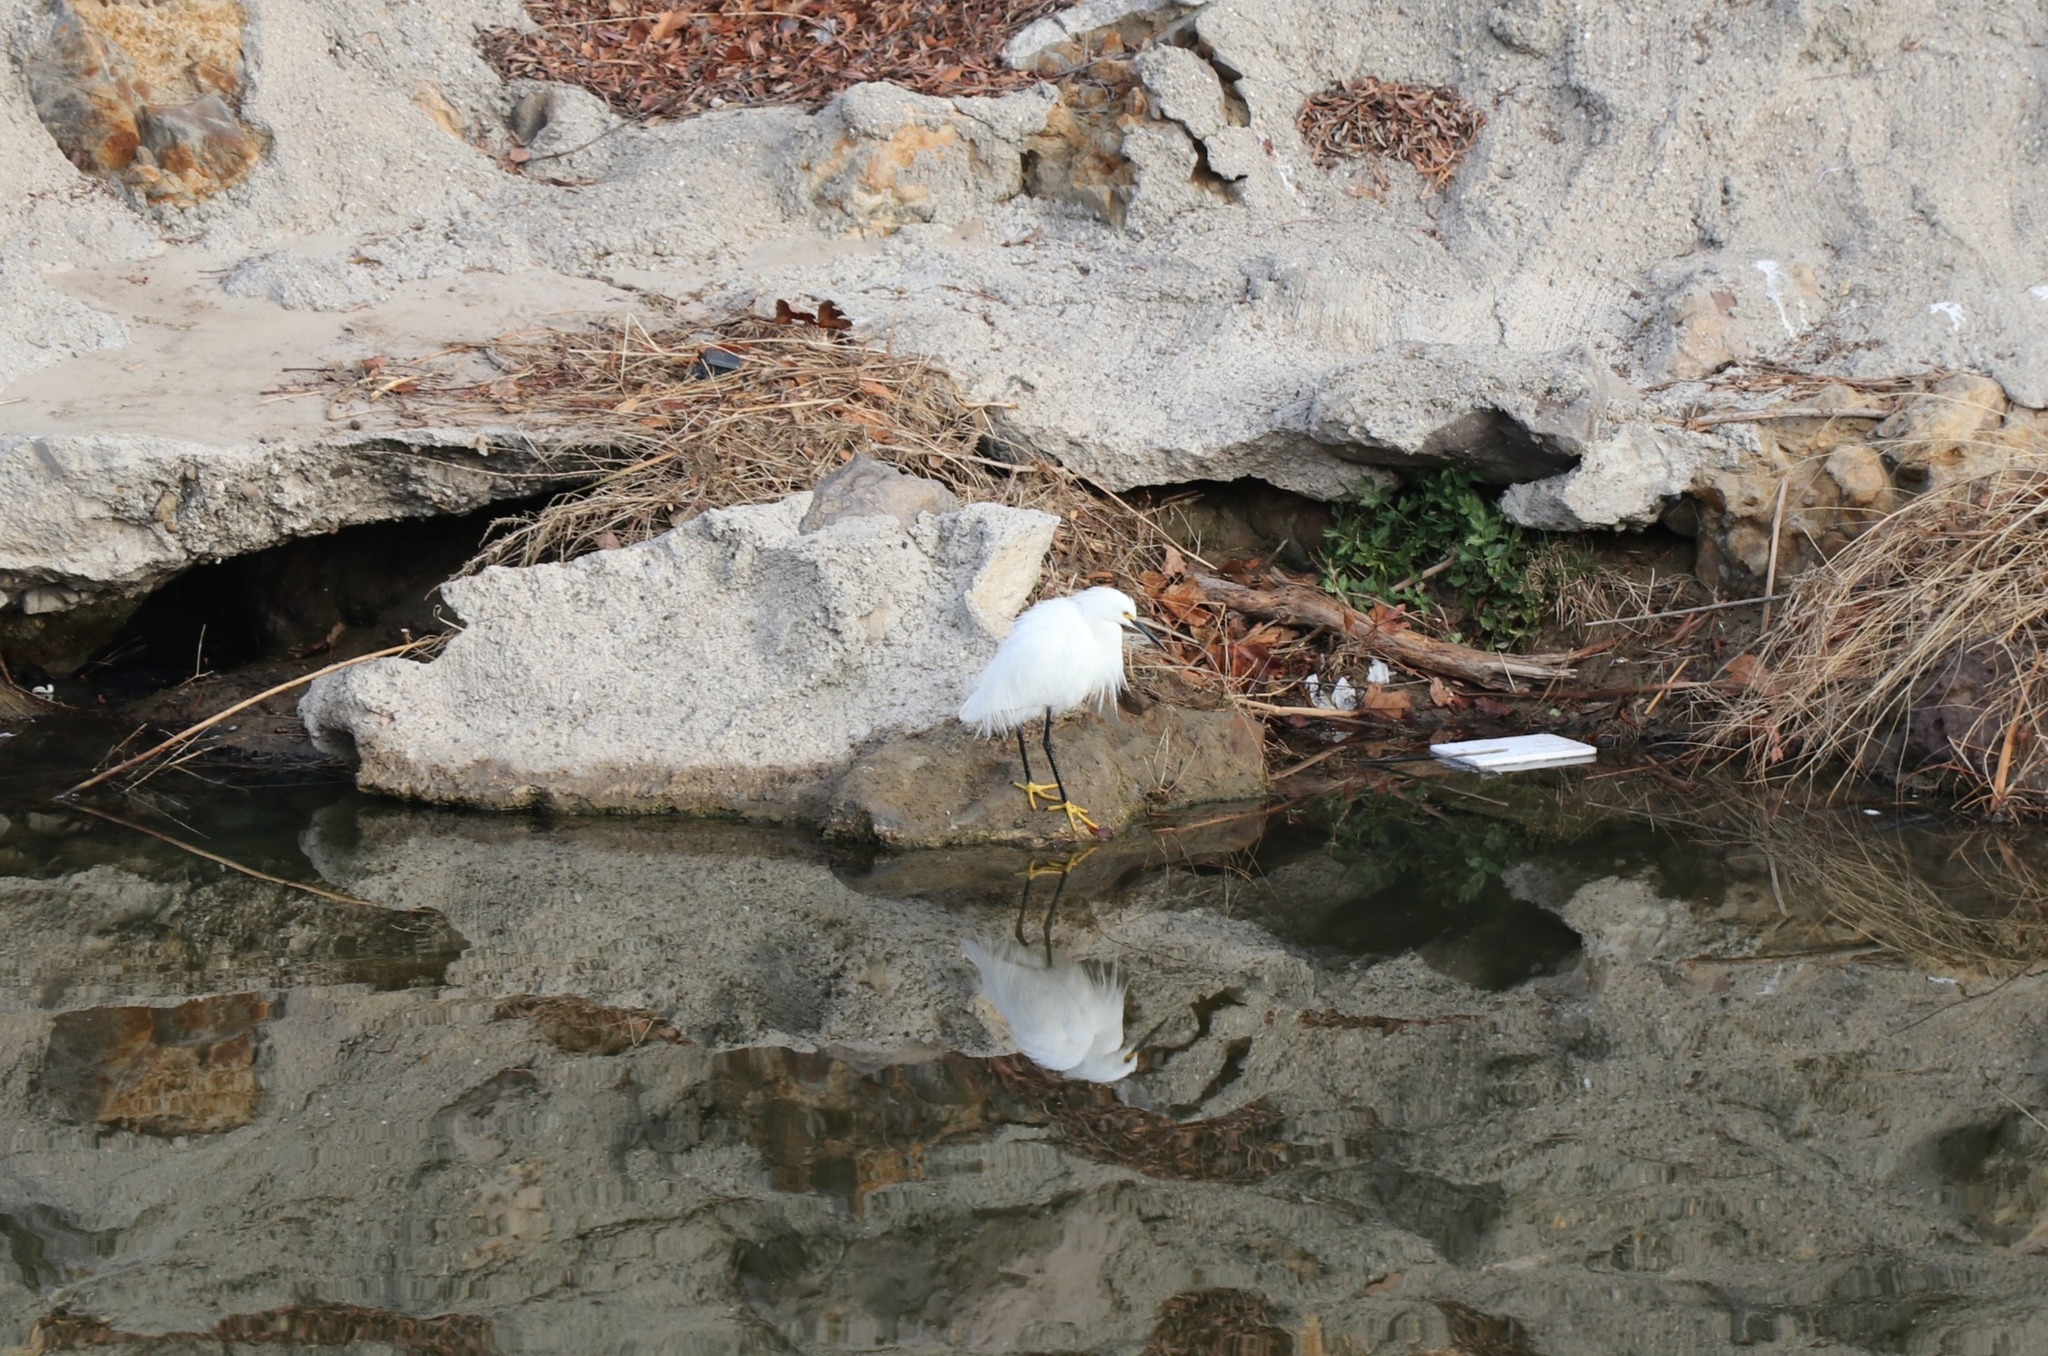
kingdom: Animalia
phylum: Chordata
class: Aves
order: Pelecaniformes
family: Ardeidae
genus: Egretta
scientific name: Egretta thula
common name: Snowy egret
